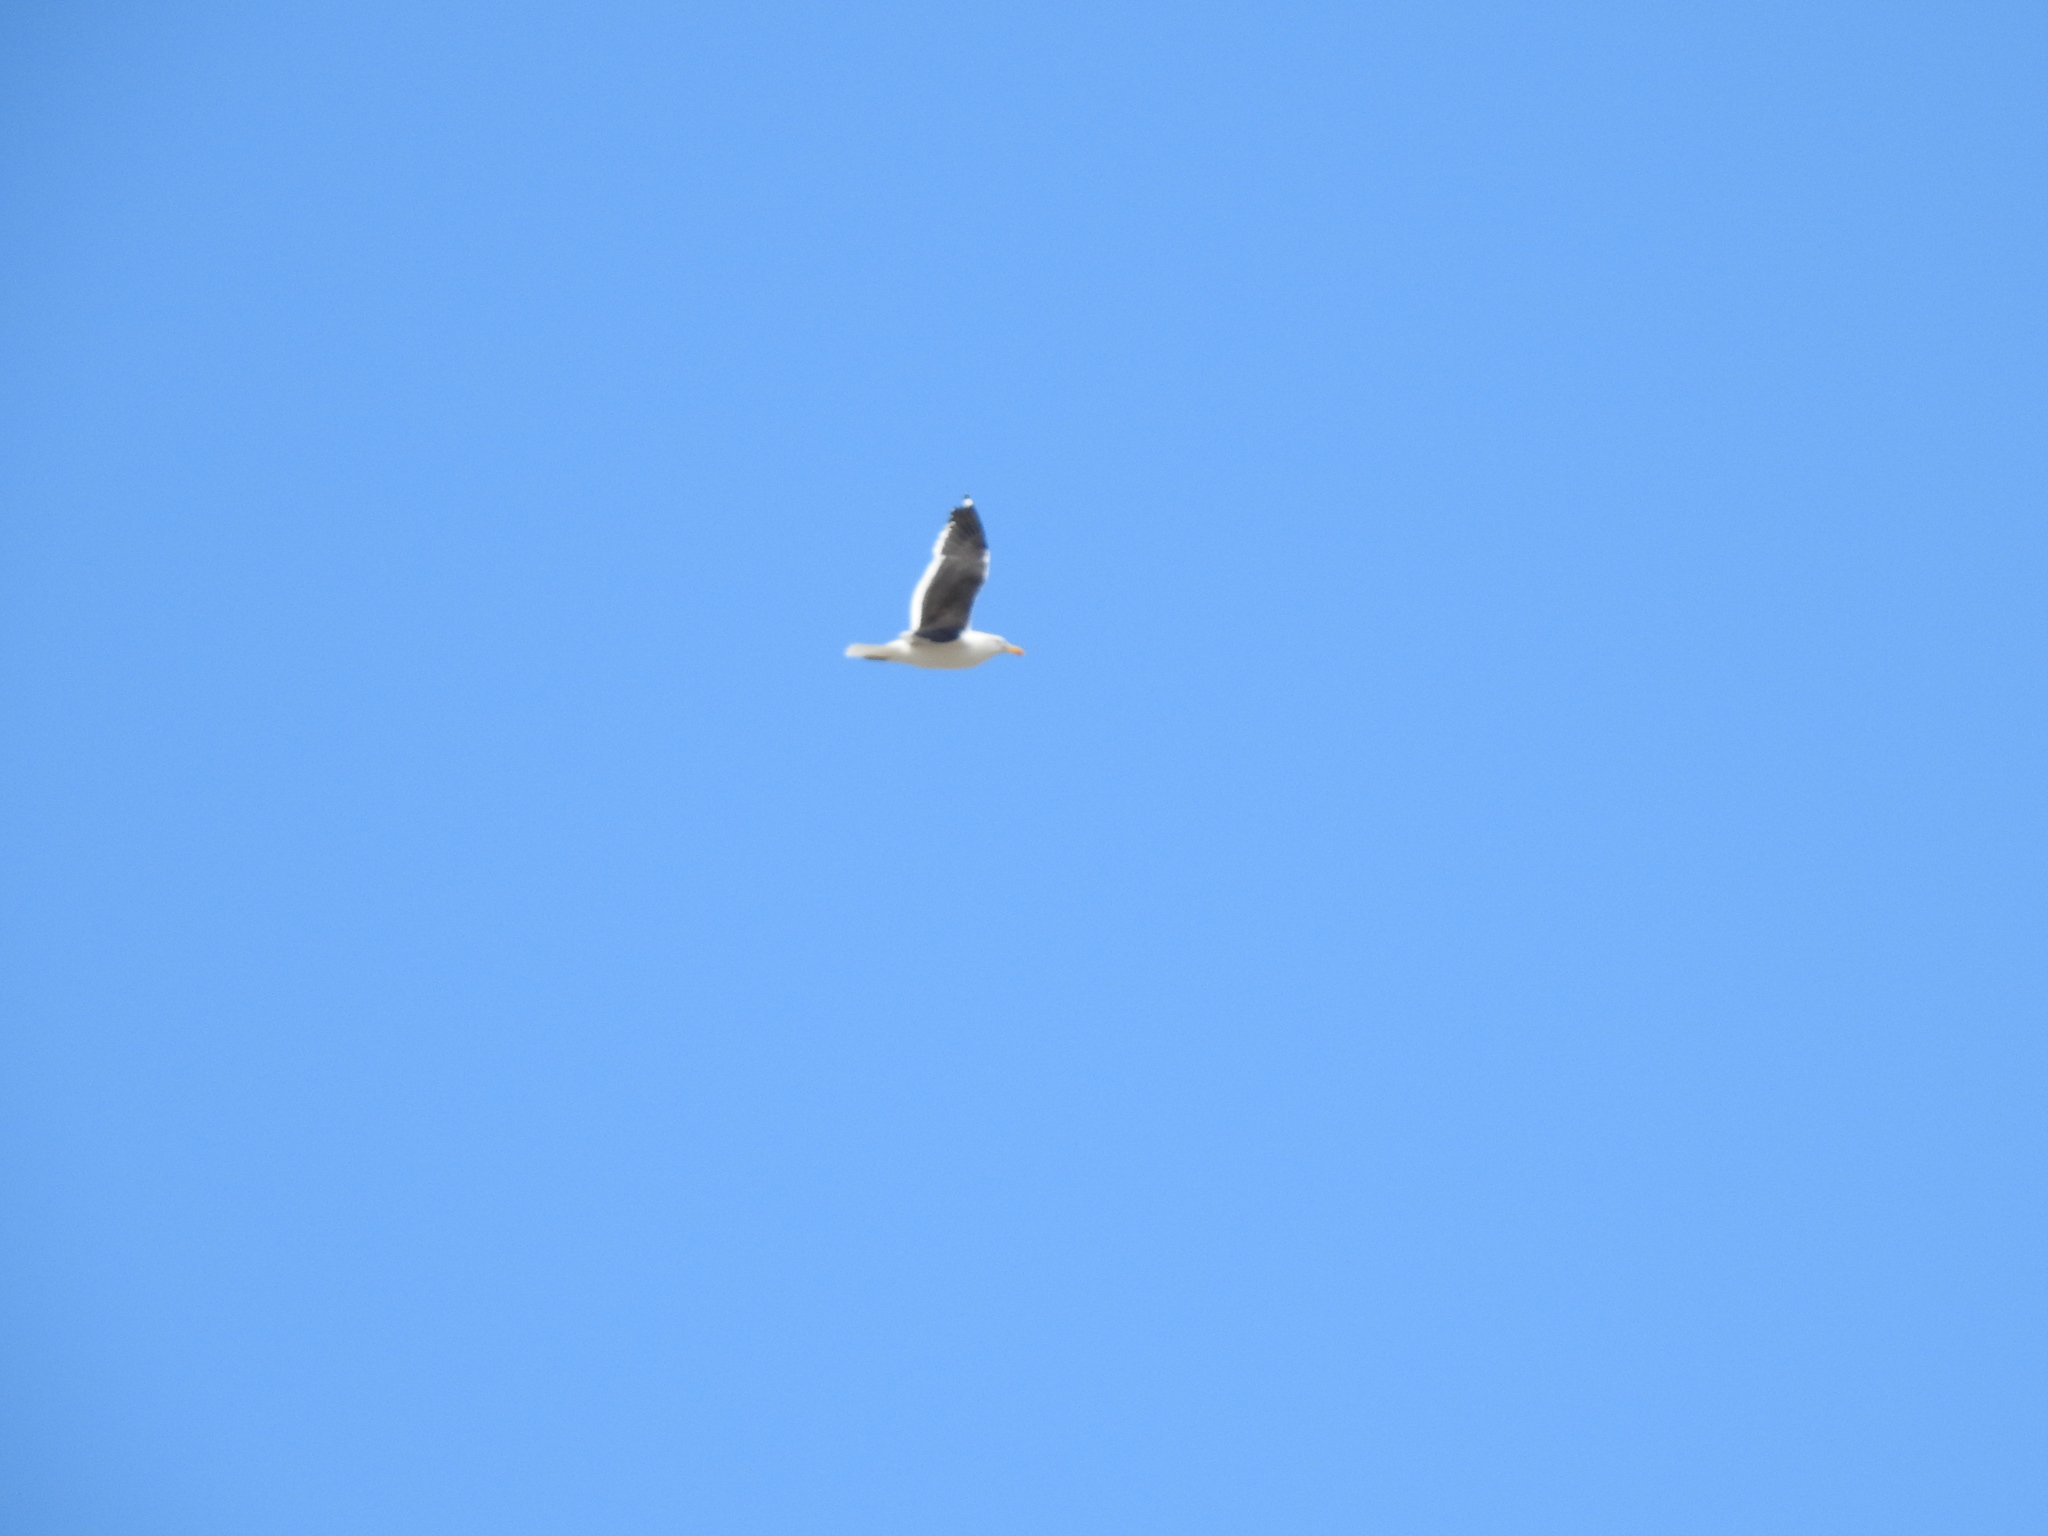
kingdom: Animalia
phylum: Chordata
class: Aves
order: Charadriiformes
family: Laridae
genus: Larus
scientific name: Larus dominicanus
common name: Kelp gull
